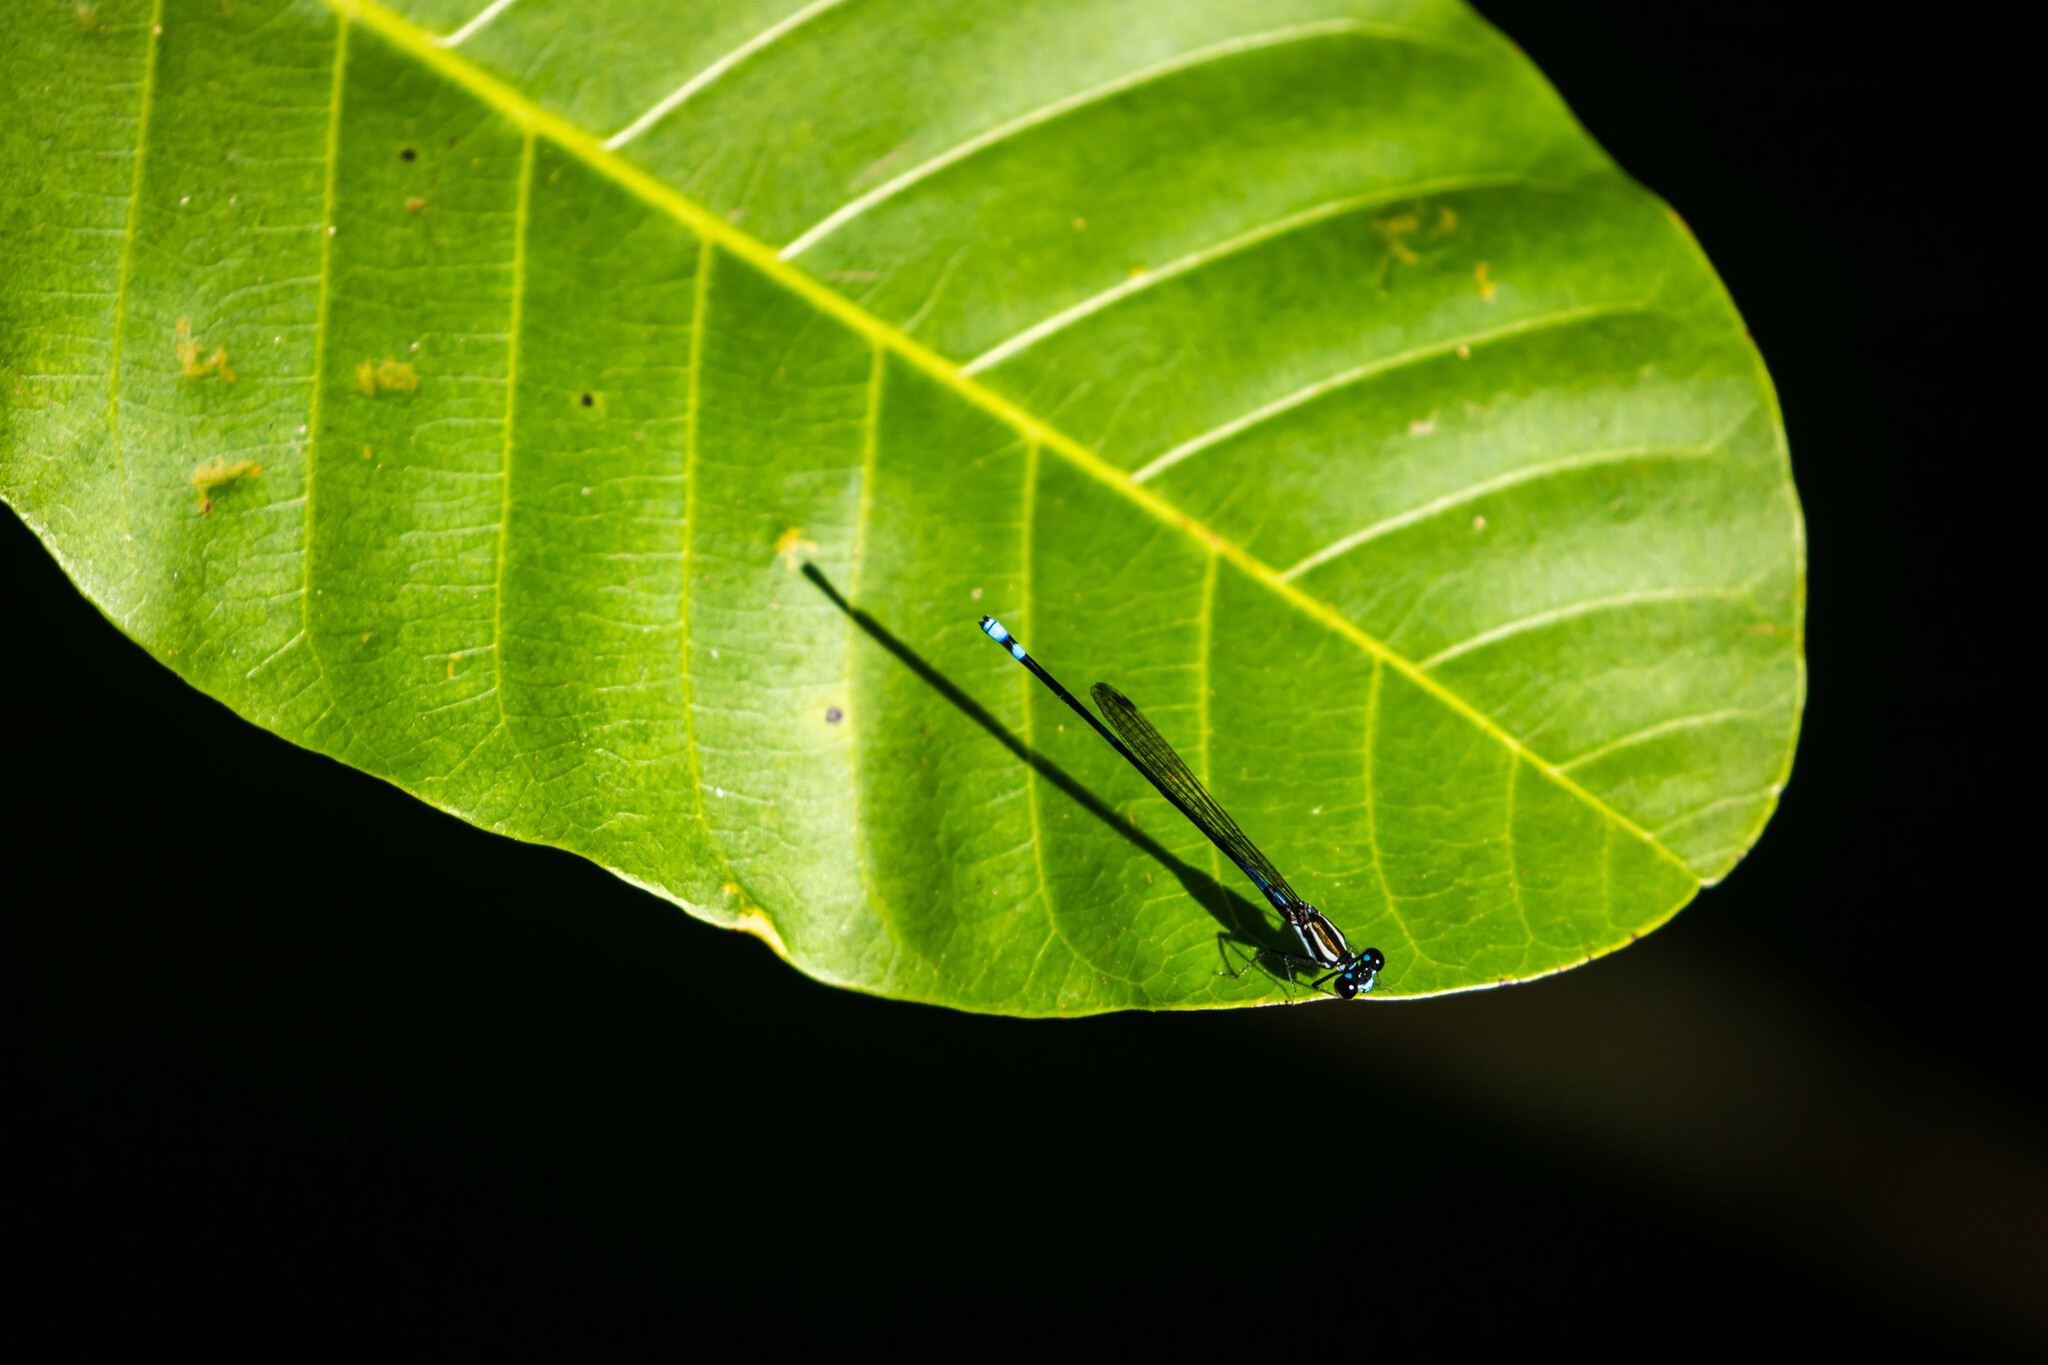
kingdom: Animalia
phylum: Arthropoda
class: Insecta
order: Odonata
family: Coenagrionidae
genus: Argia
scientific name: Argia adamsi
